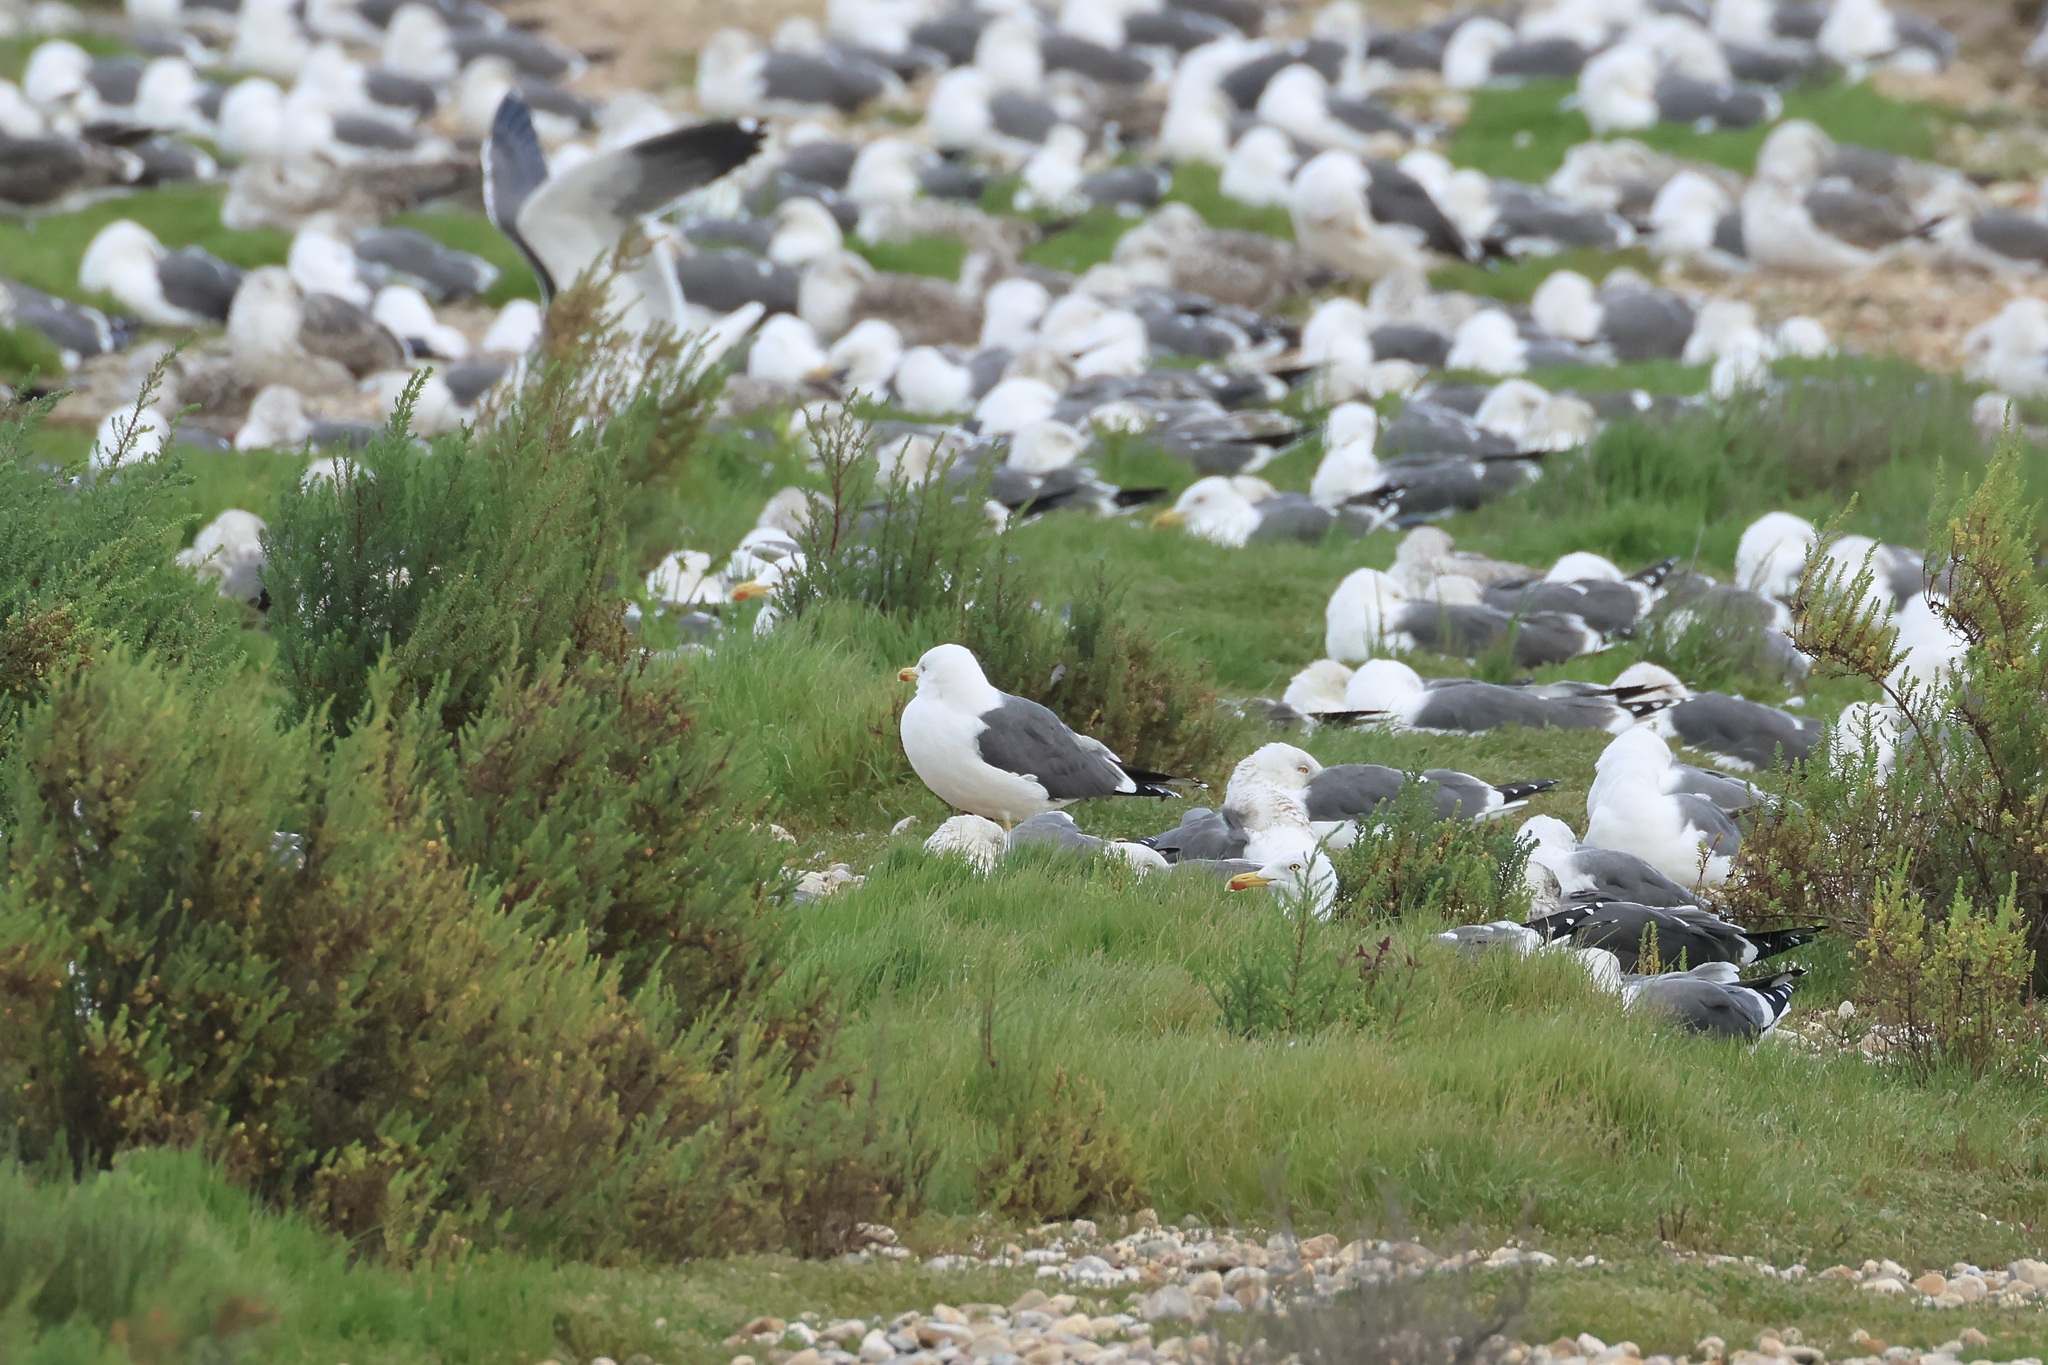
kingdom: Animalia
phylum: Chordata
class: Aves
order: Charadriiformes
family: Laridae
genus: Larus
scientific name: Larus fuscus
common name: Lesser black-backed gull
